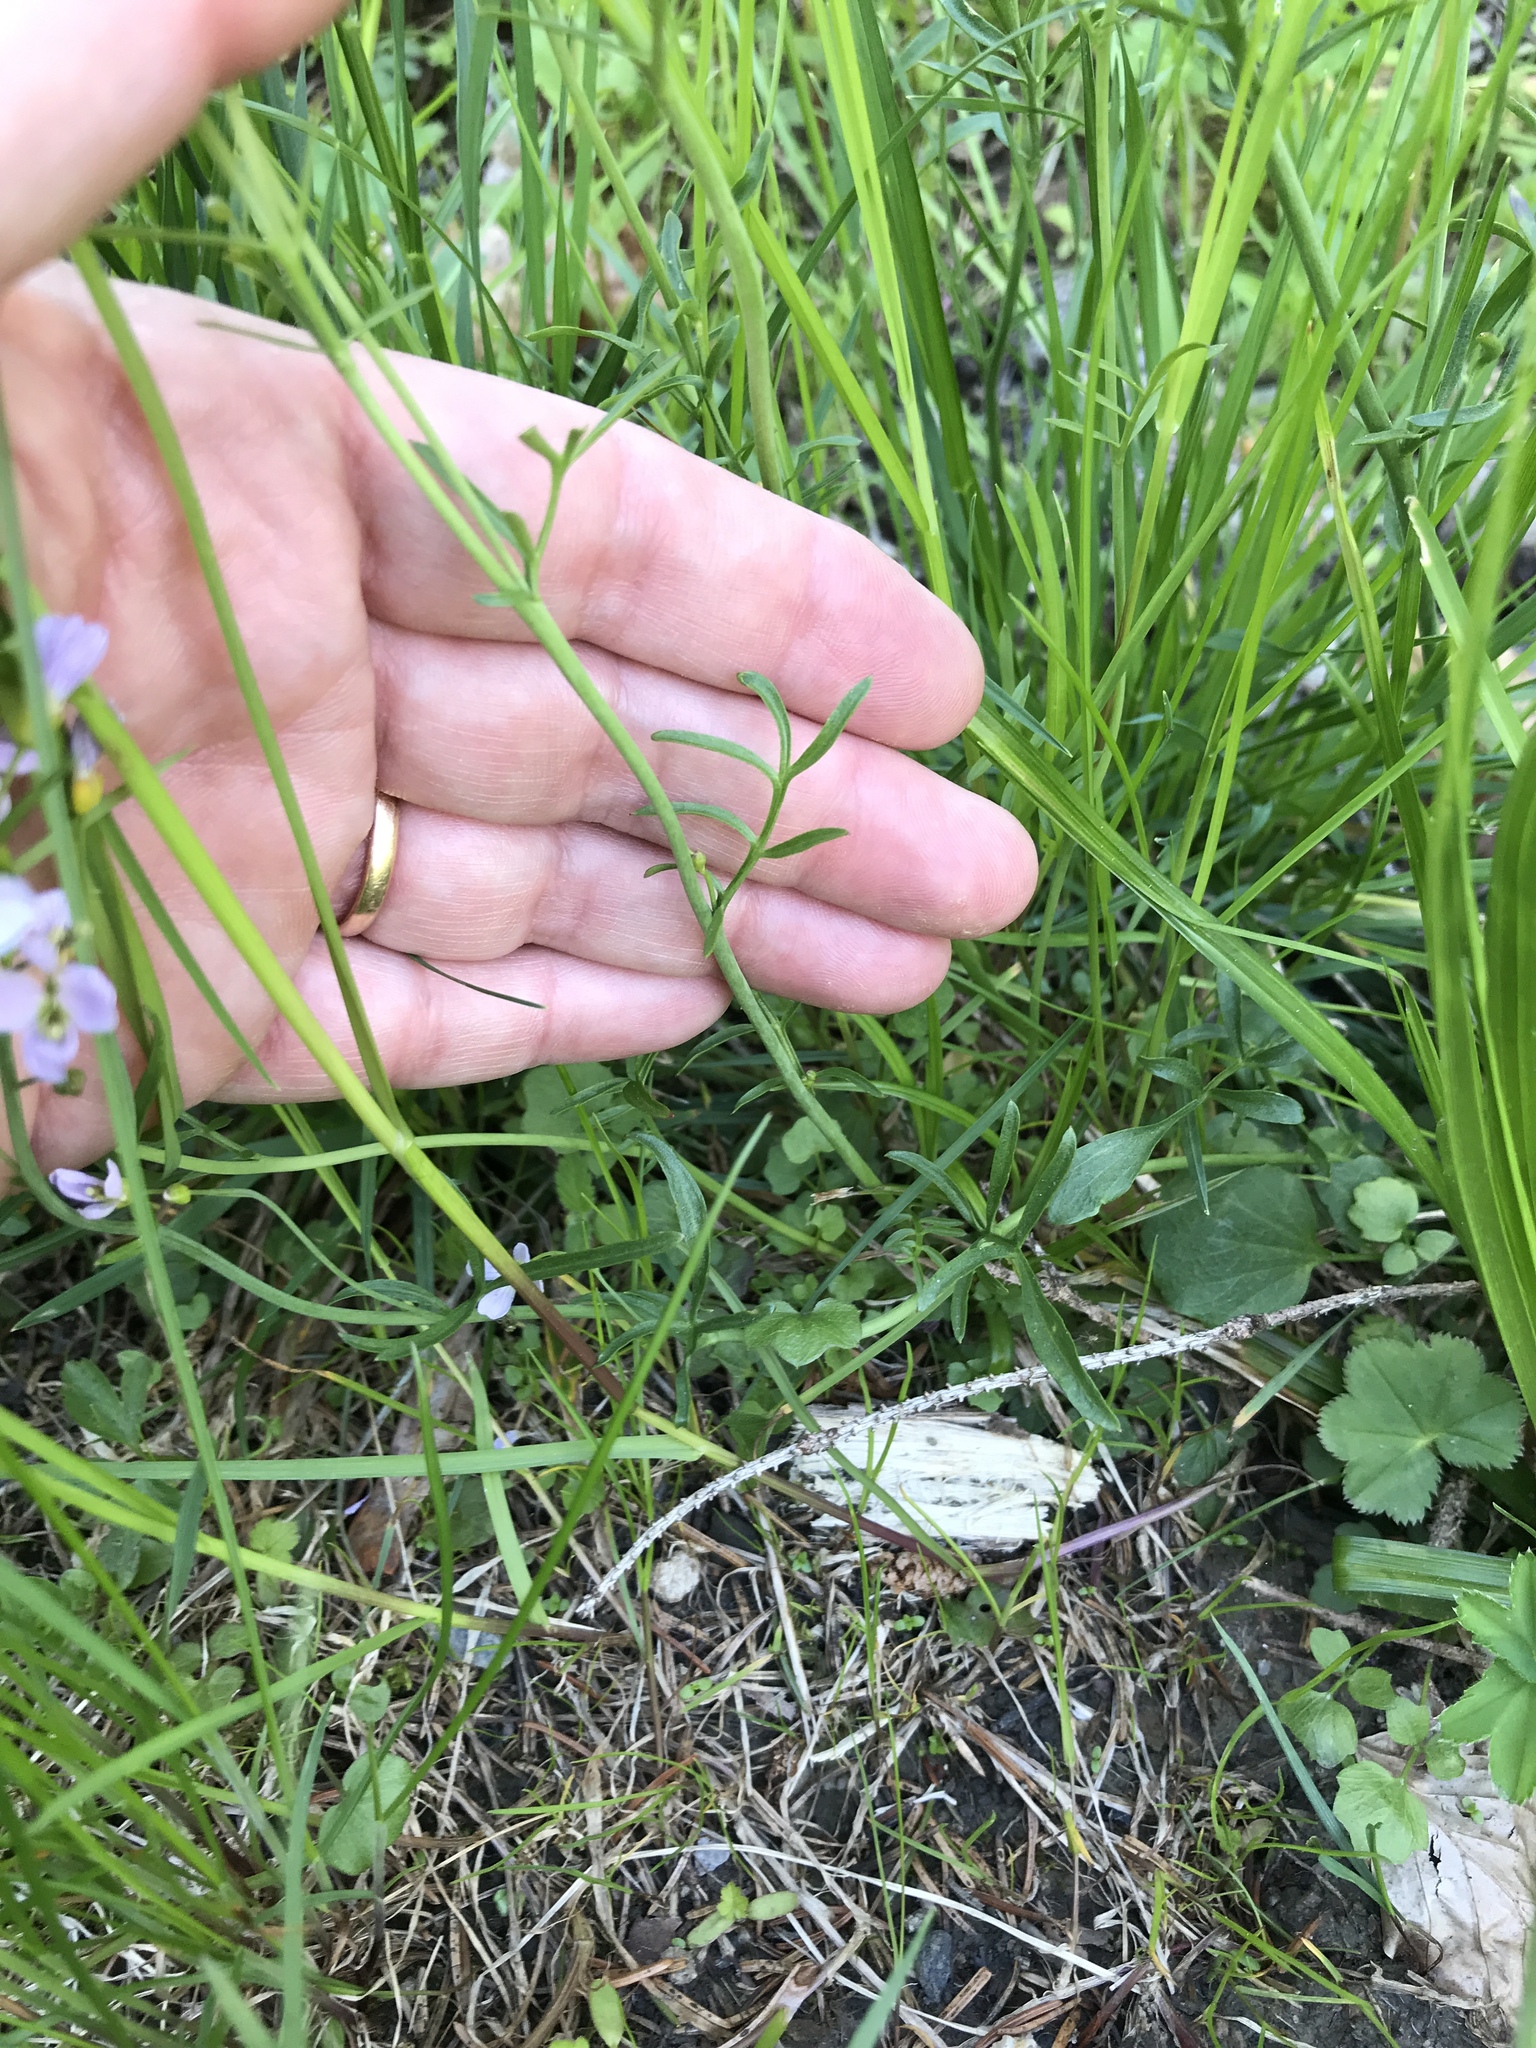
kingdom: Plantae
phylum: Tracheophyta
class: Magnoliopsida
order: Brassicales
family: Brassicaceae
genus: Cardamine
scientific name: Cardamine pratensis
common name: Cuckoo flower
